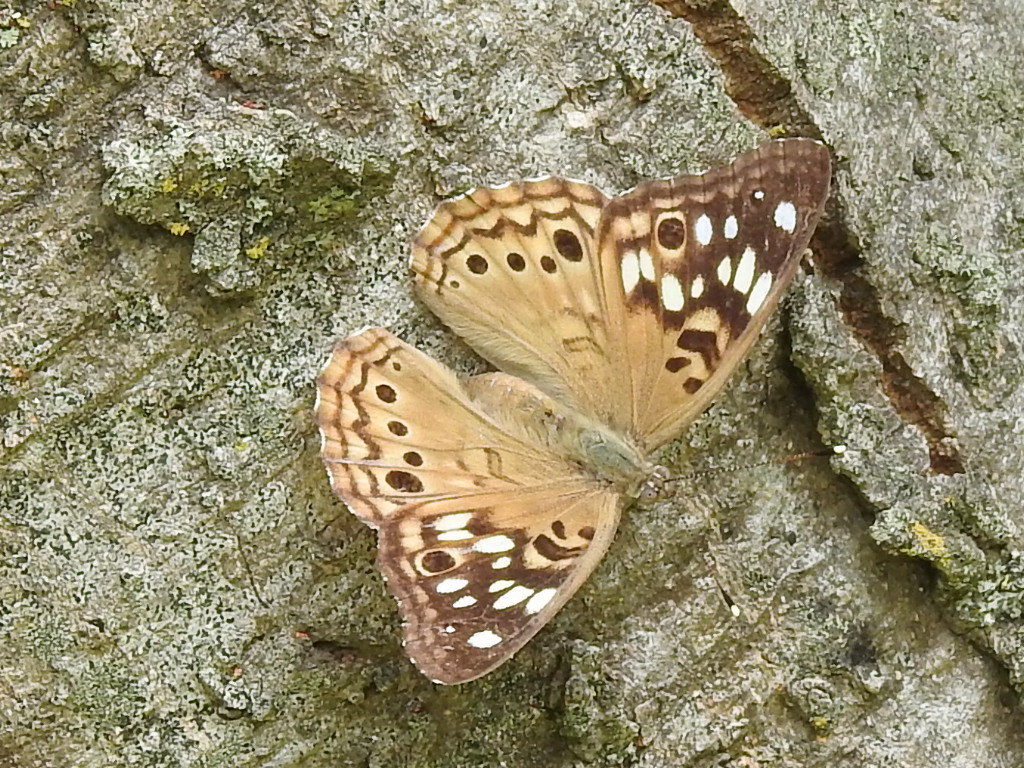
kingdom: Animalia
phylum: Arthropoda
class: Insecta
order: Lepidoptera
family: Nymphalidae
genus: Asterocampa
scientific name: Asterocampa celtis
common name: Hackberry emperor
